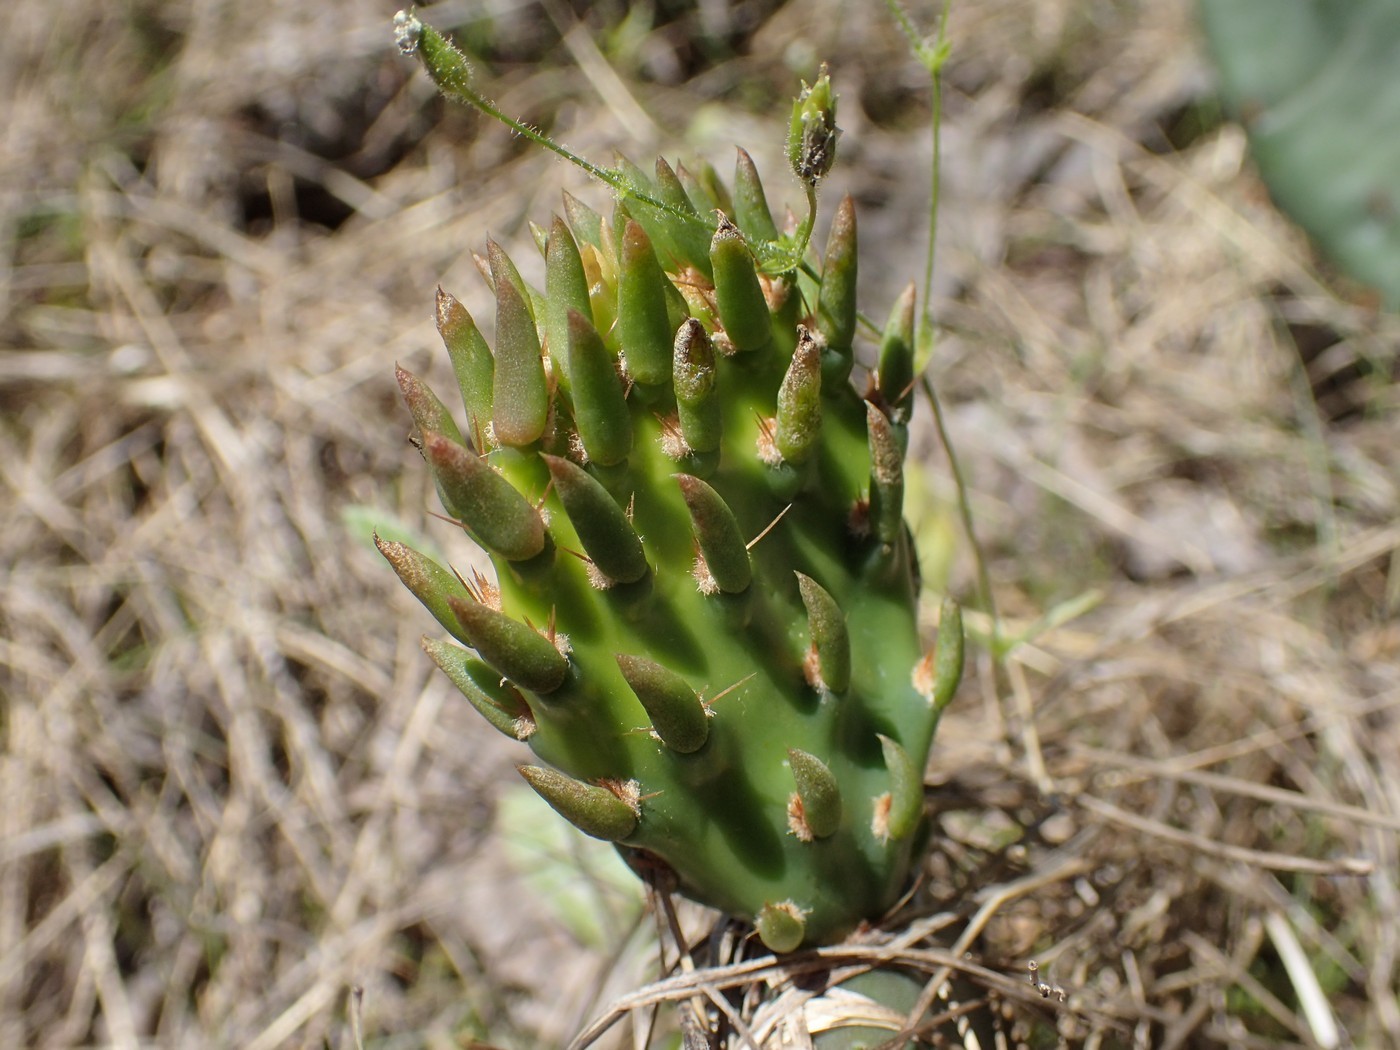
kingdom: Plantae
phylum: Tracheophyta
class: Magnoliopsida
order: Caryophyllales
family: Cactaceae
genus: Opuntia
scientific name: Opuntia humifusa
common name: Eastern prickly-pear
